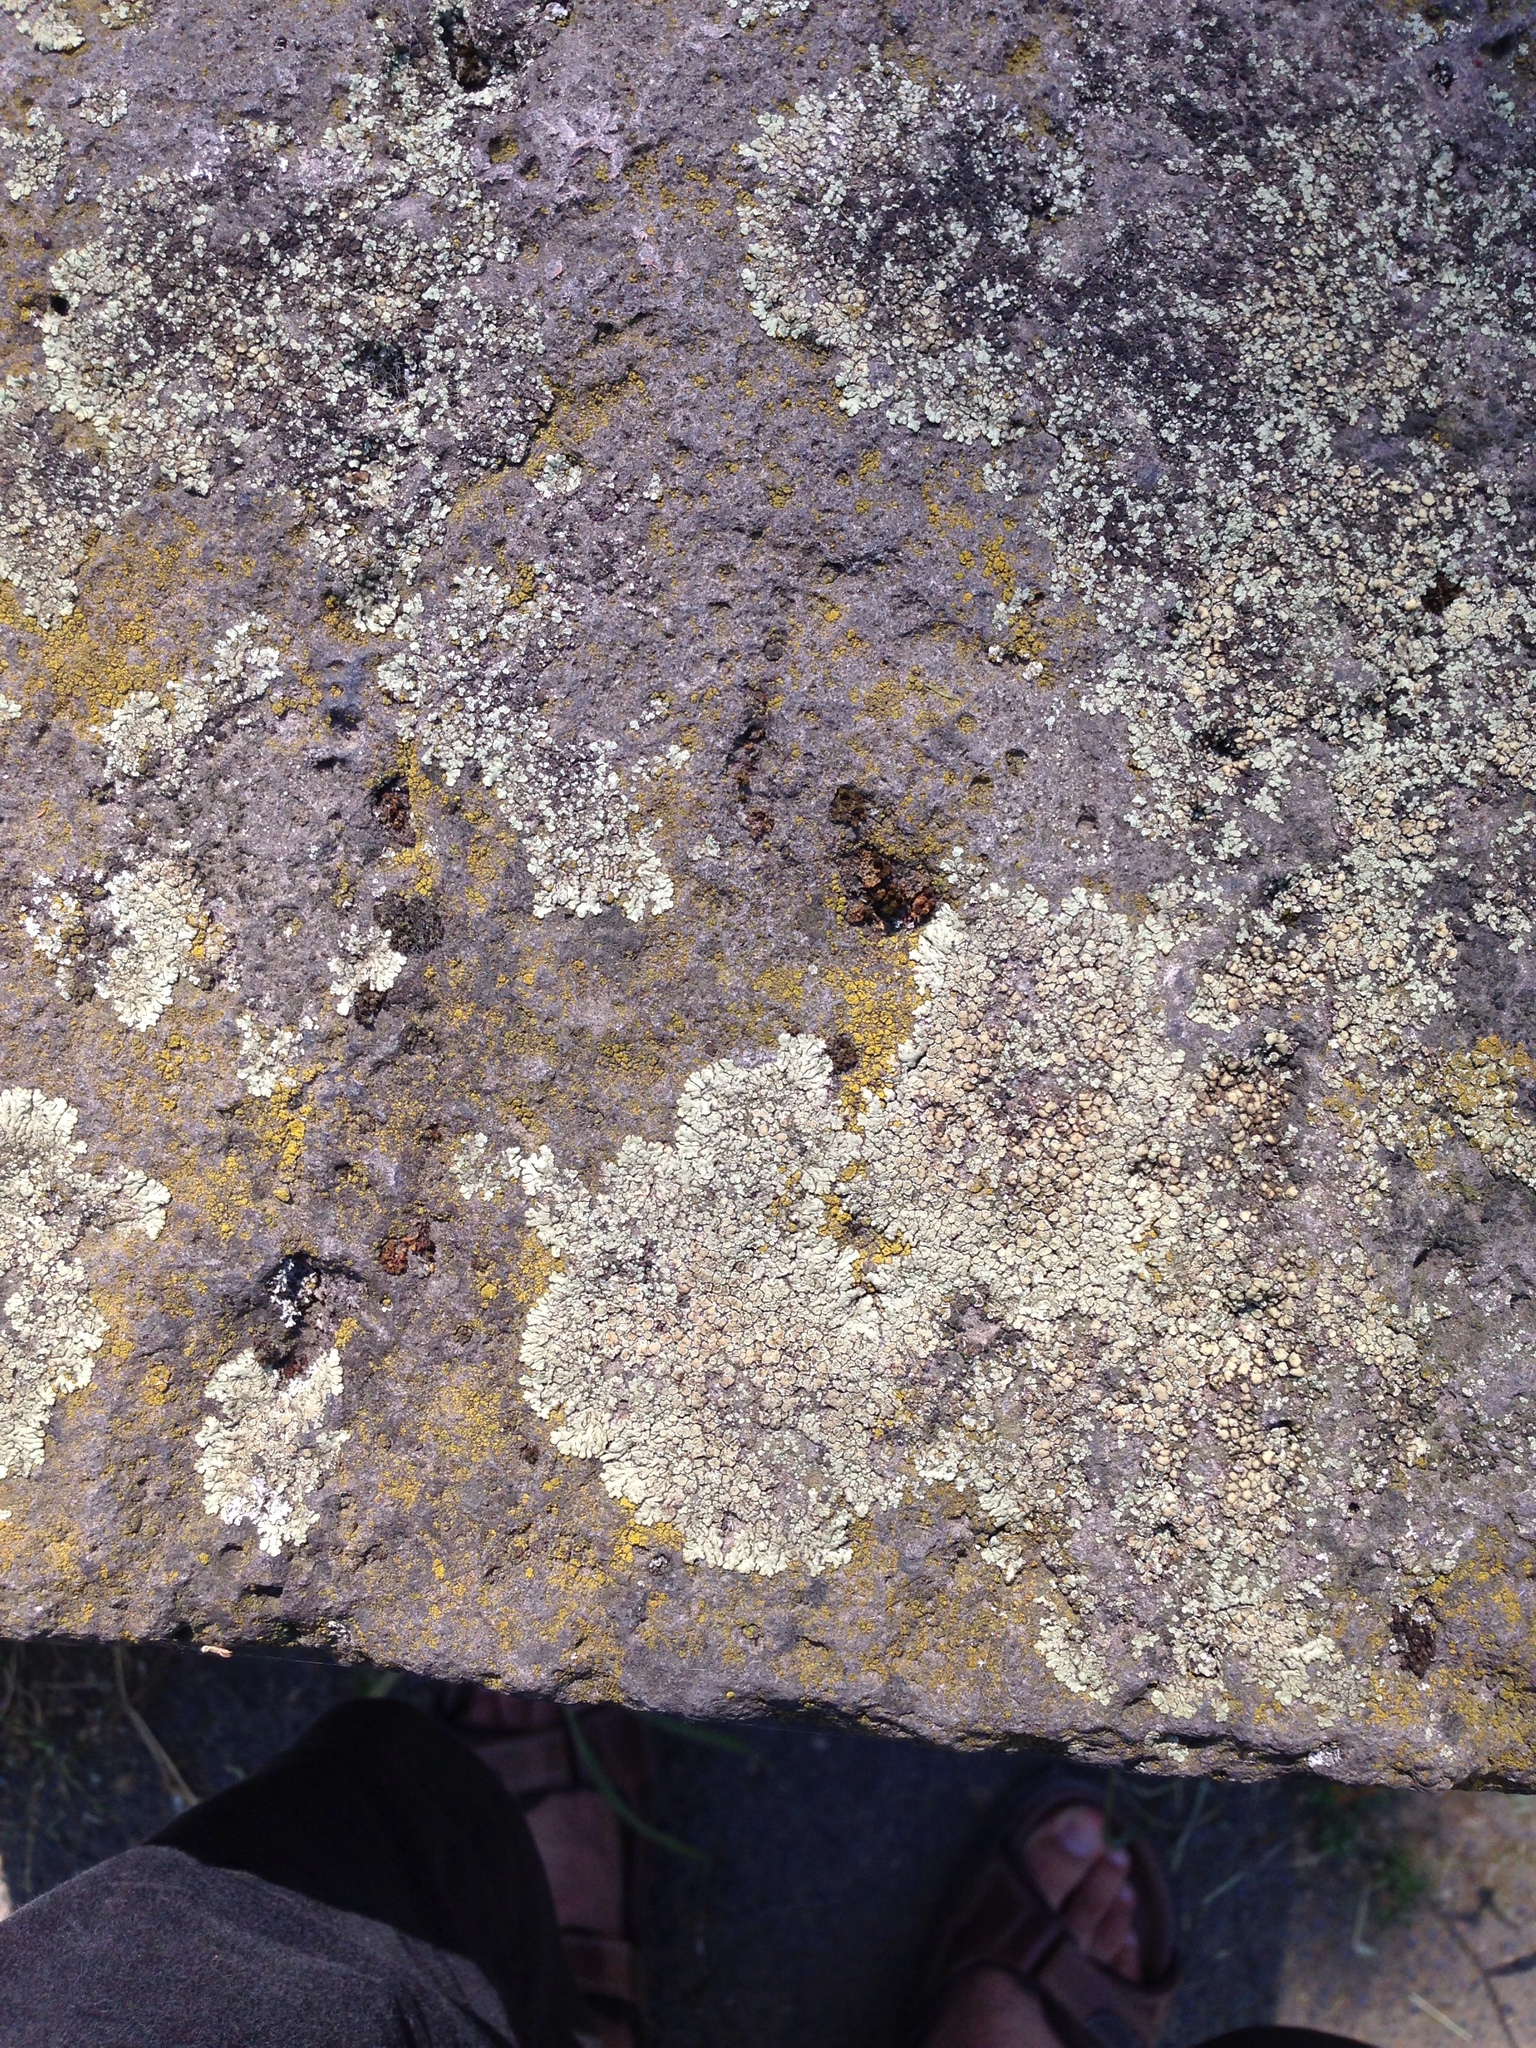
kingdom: Fungi
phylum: Ascomycota
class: Lecanoromycetes
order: Lecanorales
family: Lecanoraceae
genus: Protoparmeliopsis
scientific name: Protoparmeliopsis muralis
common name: Stonewall rim lichen
